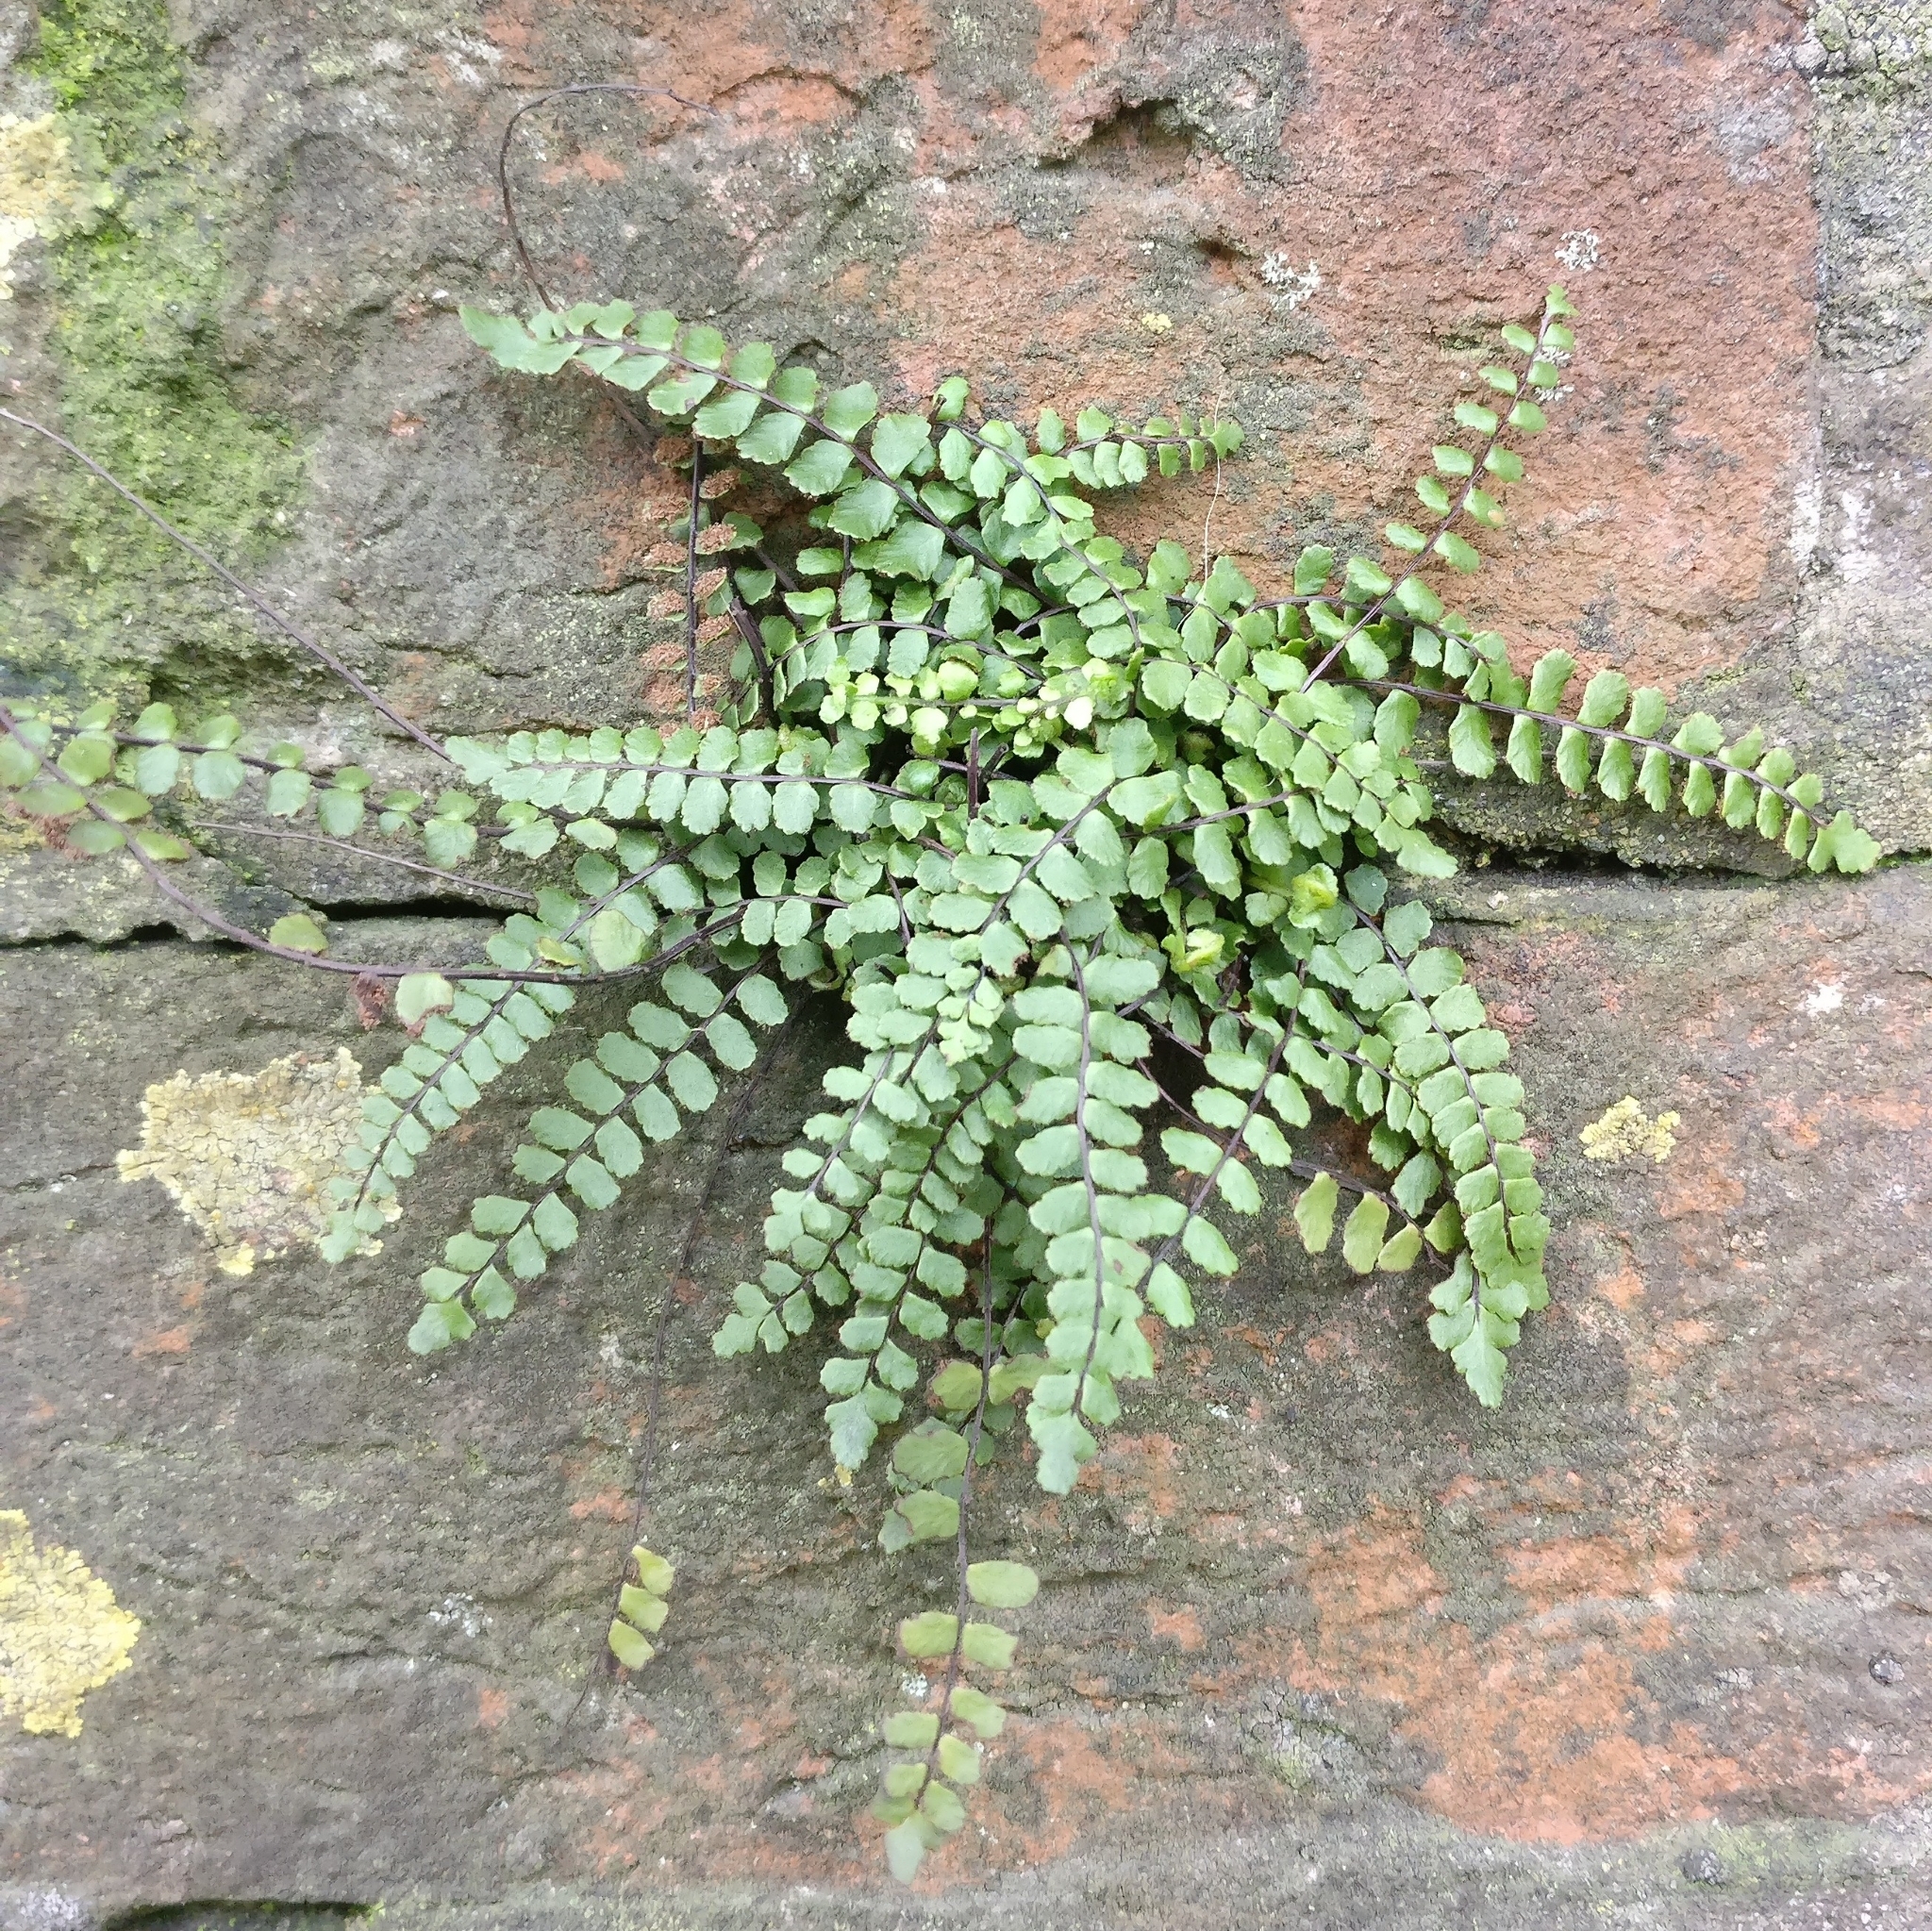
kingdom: Plantae
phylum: Tracheophyta
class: Polypodiopsida
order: Polypodiales
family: Aspleniaceae
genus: Asplenium
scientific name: Asplenium trichomanes
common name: Maidenhair spleenwort
